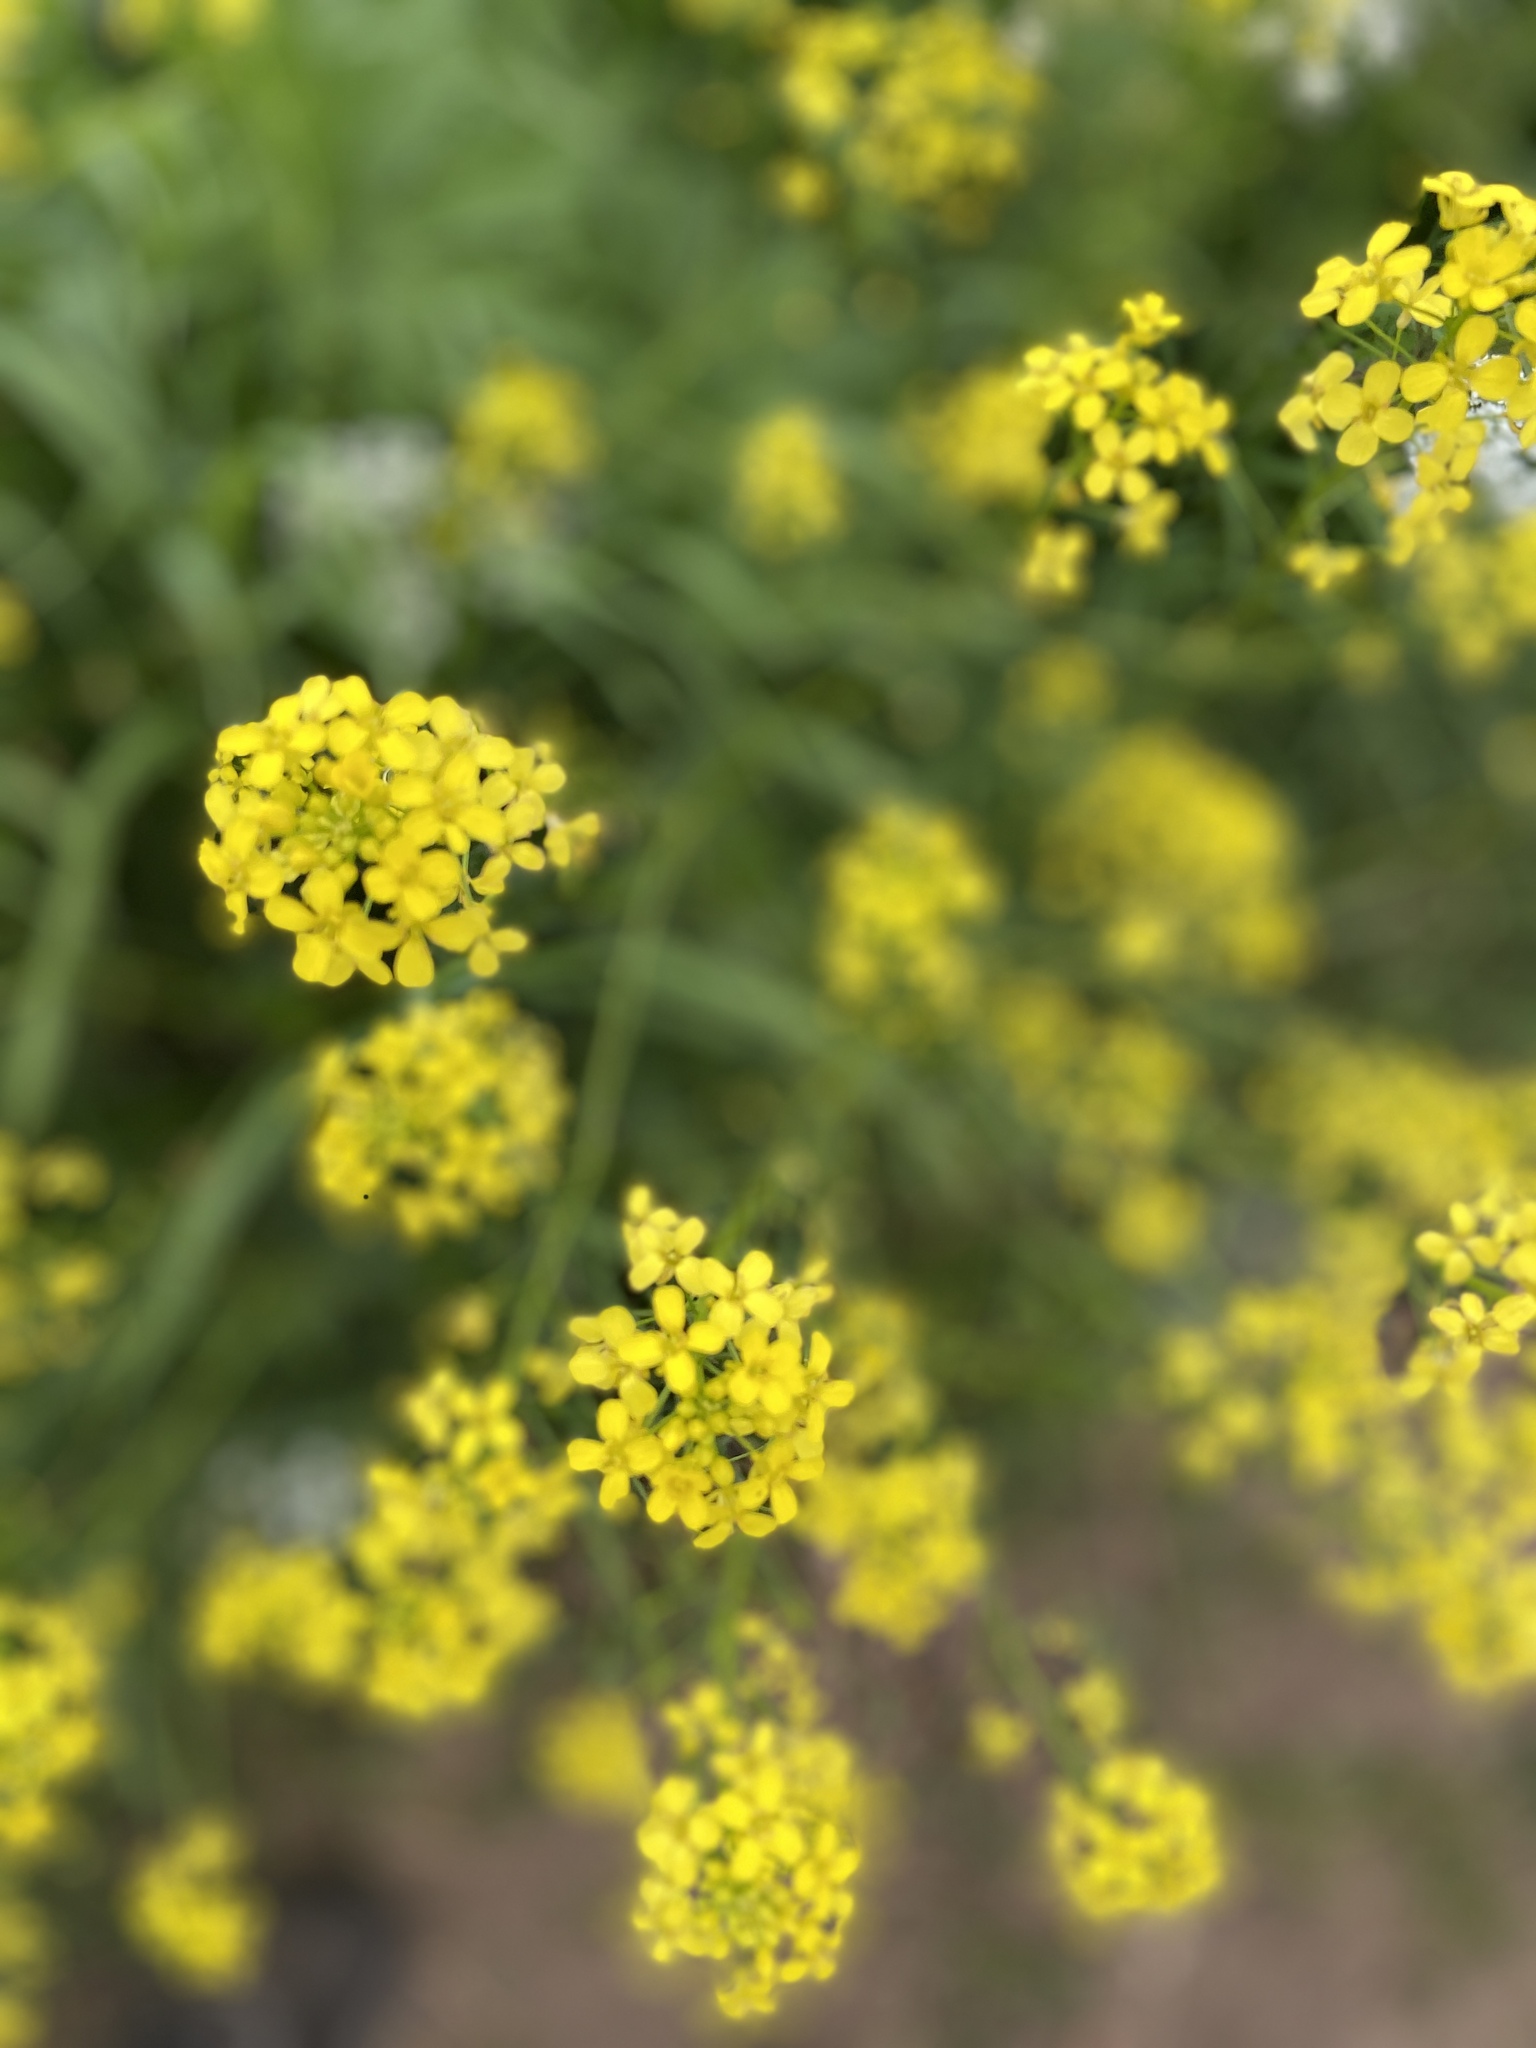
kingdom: Plantae
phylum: Tracheophyta
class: Magnoliopsida
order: Brassicales
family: Brassicaceae
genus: Bunias
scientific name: Bunias orientalis
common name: Warty-cabbage
